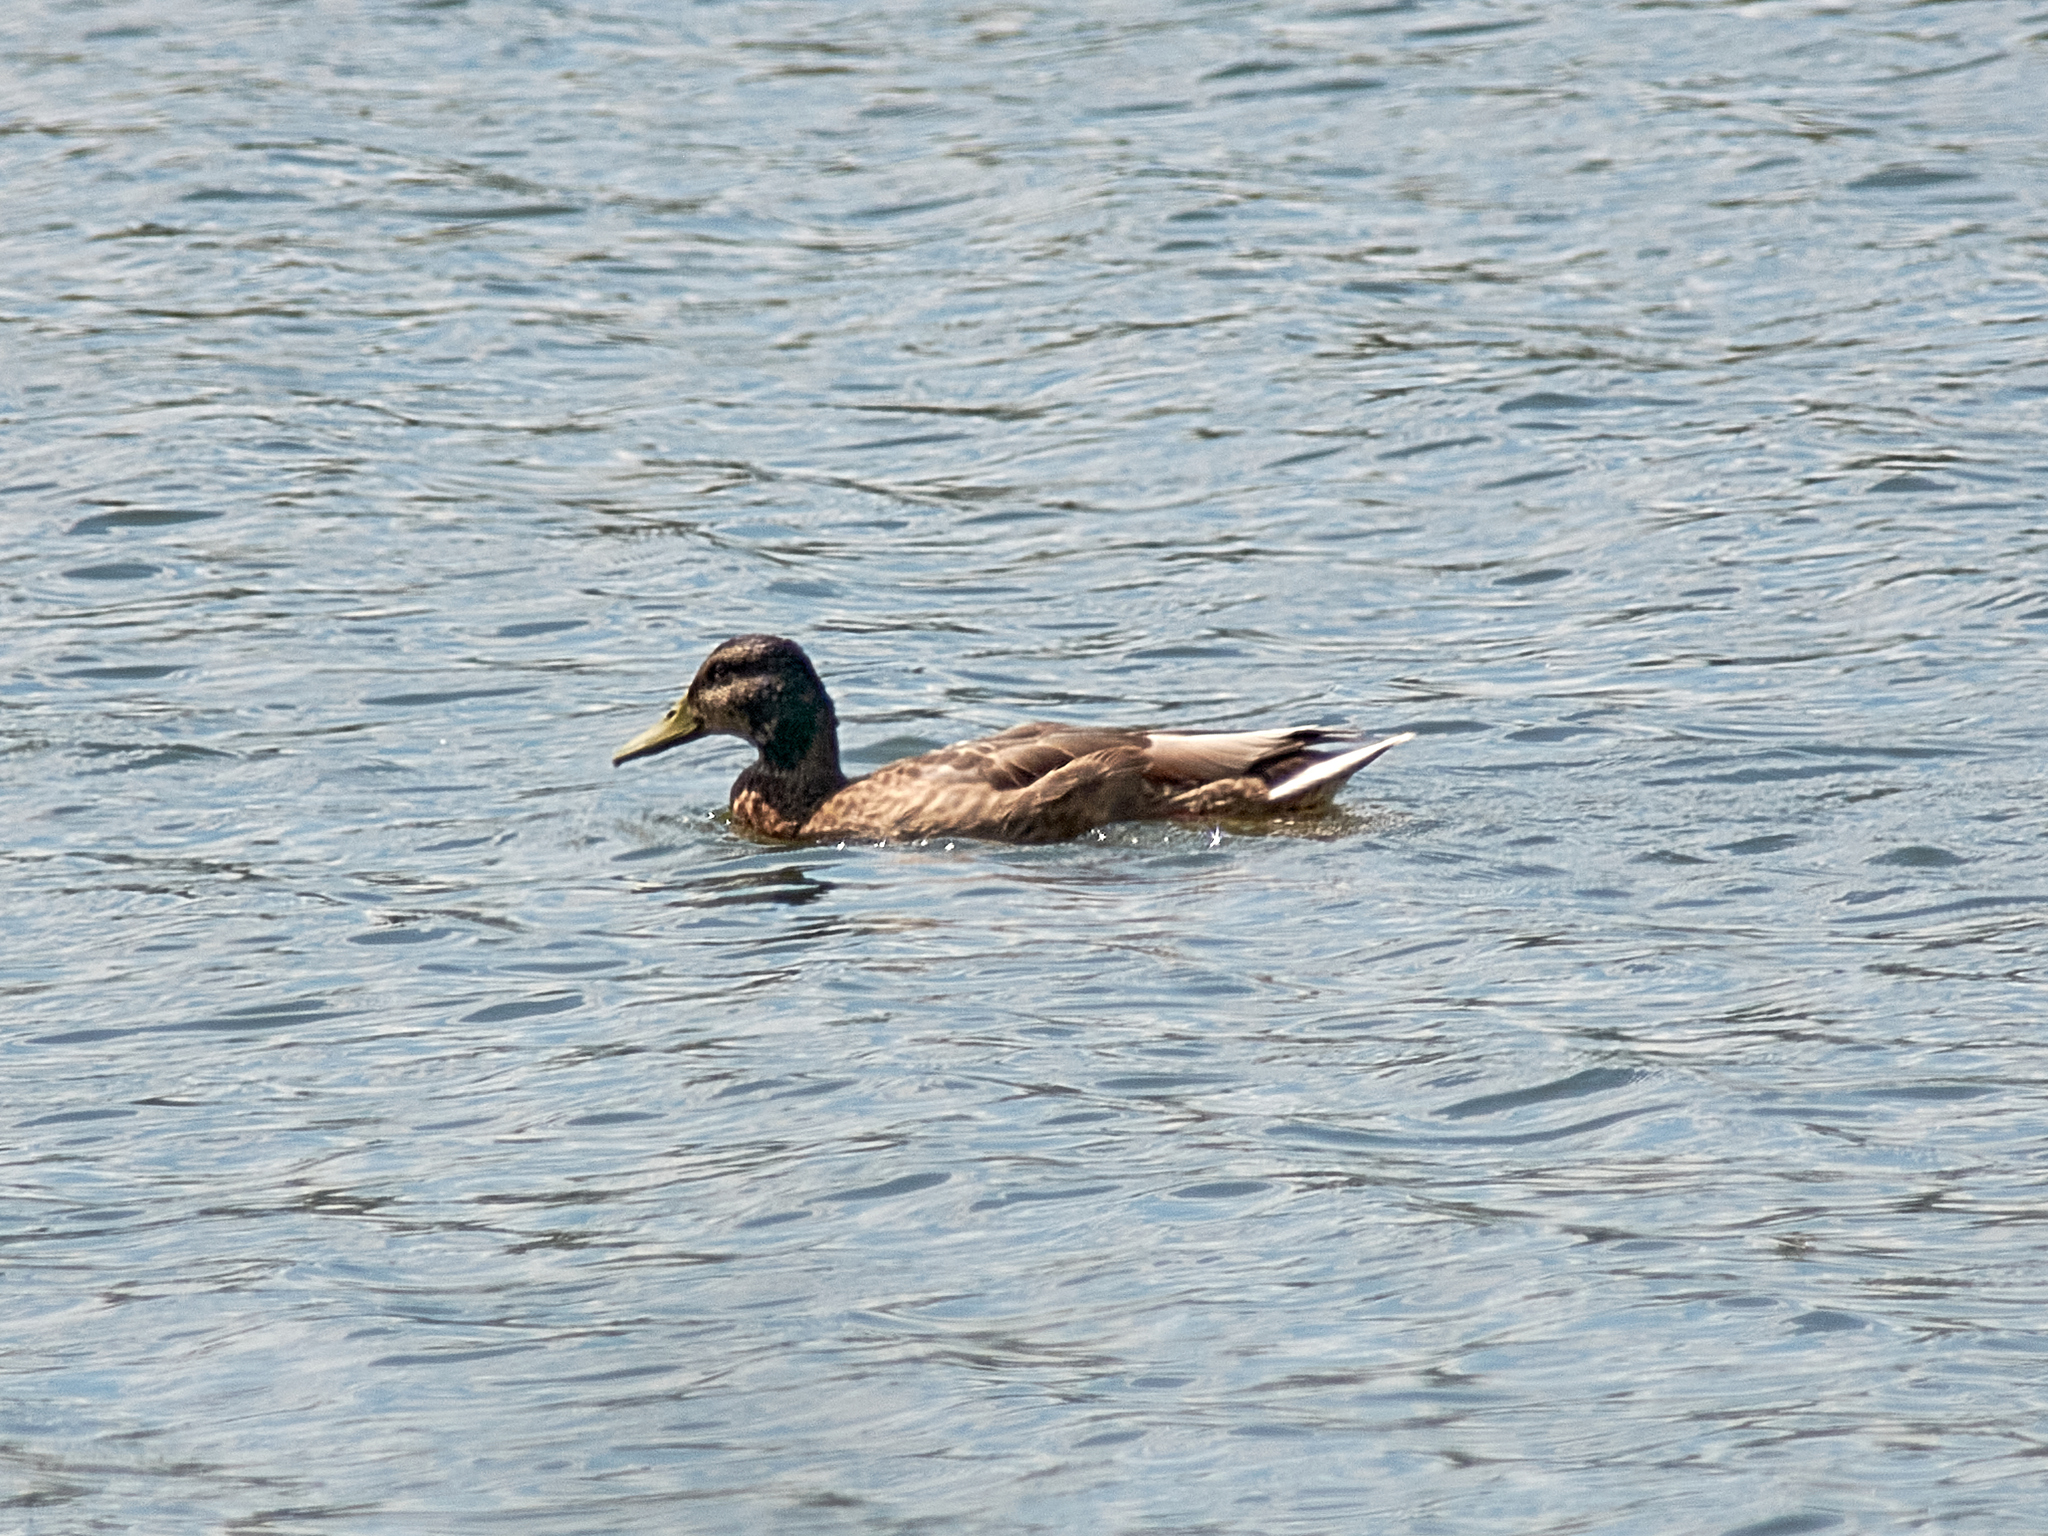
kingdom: Animalia
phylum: Chordata
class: Aves
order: Anseriformes
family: Anatidae
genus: Anas
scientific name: Anas platyrhynchos
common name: Mallard
